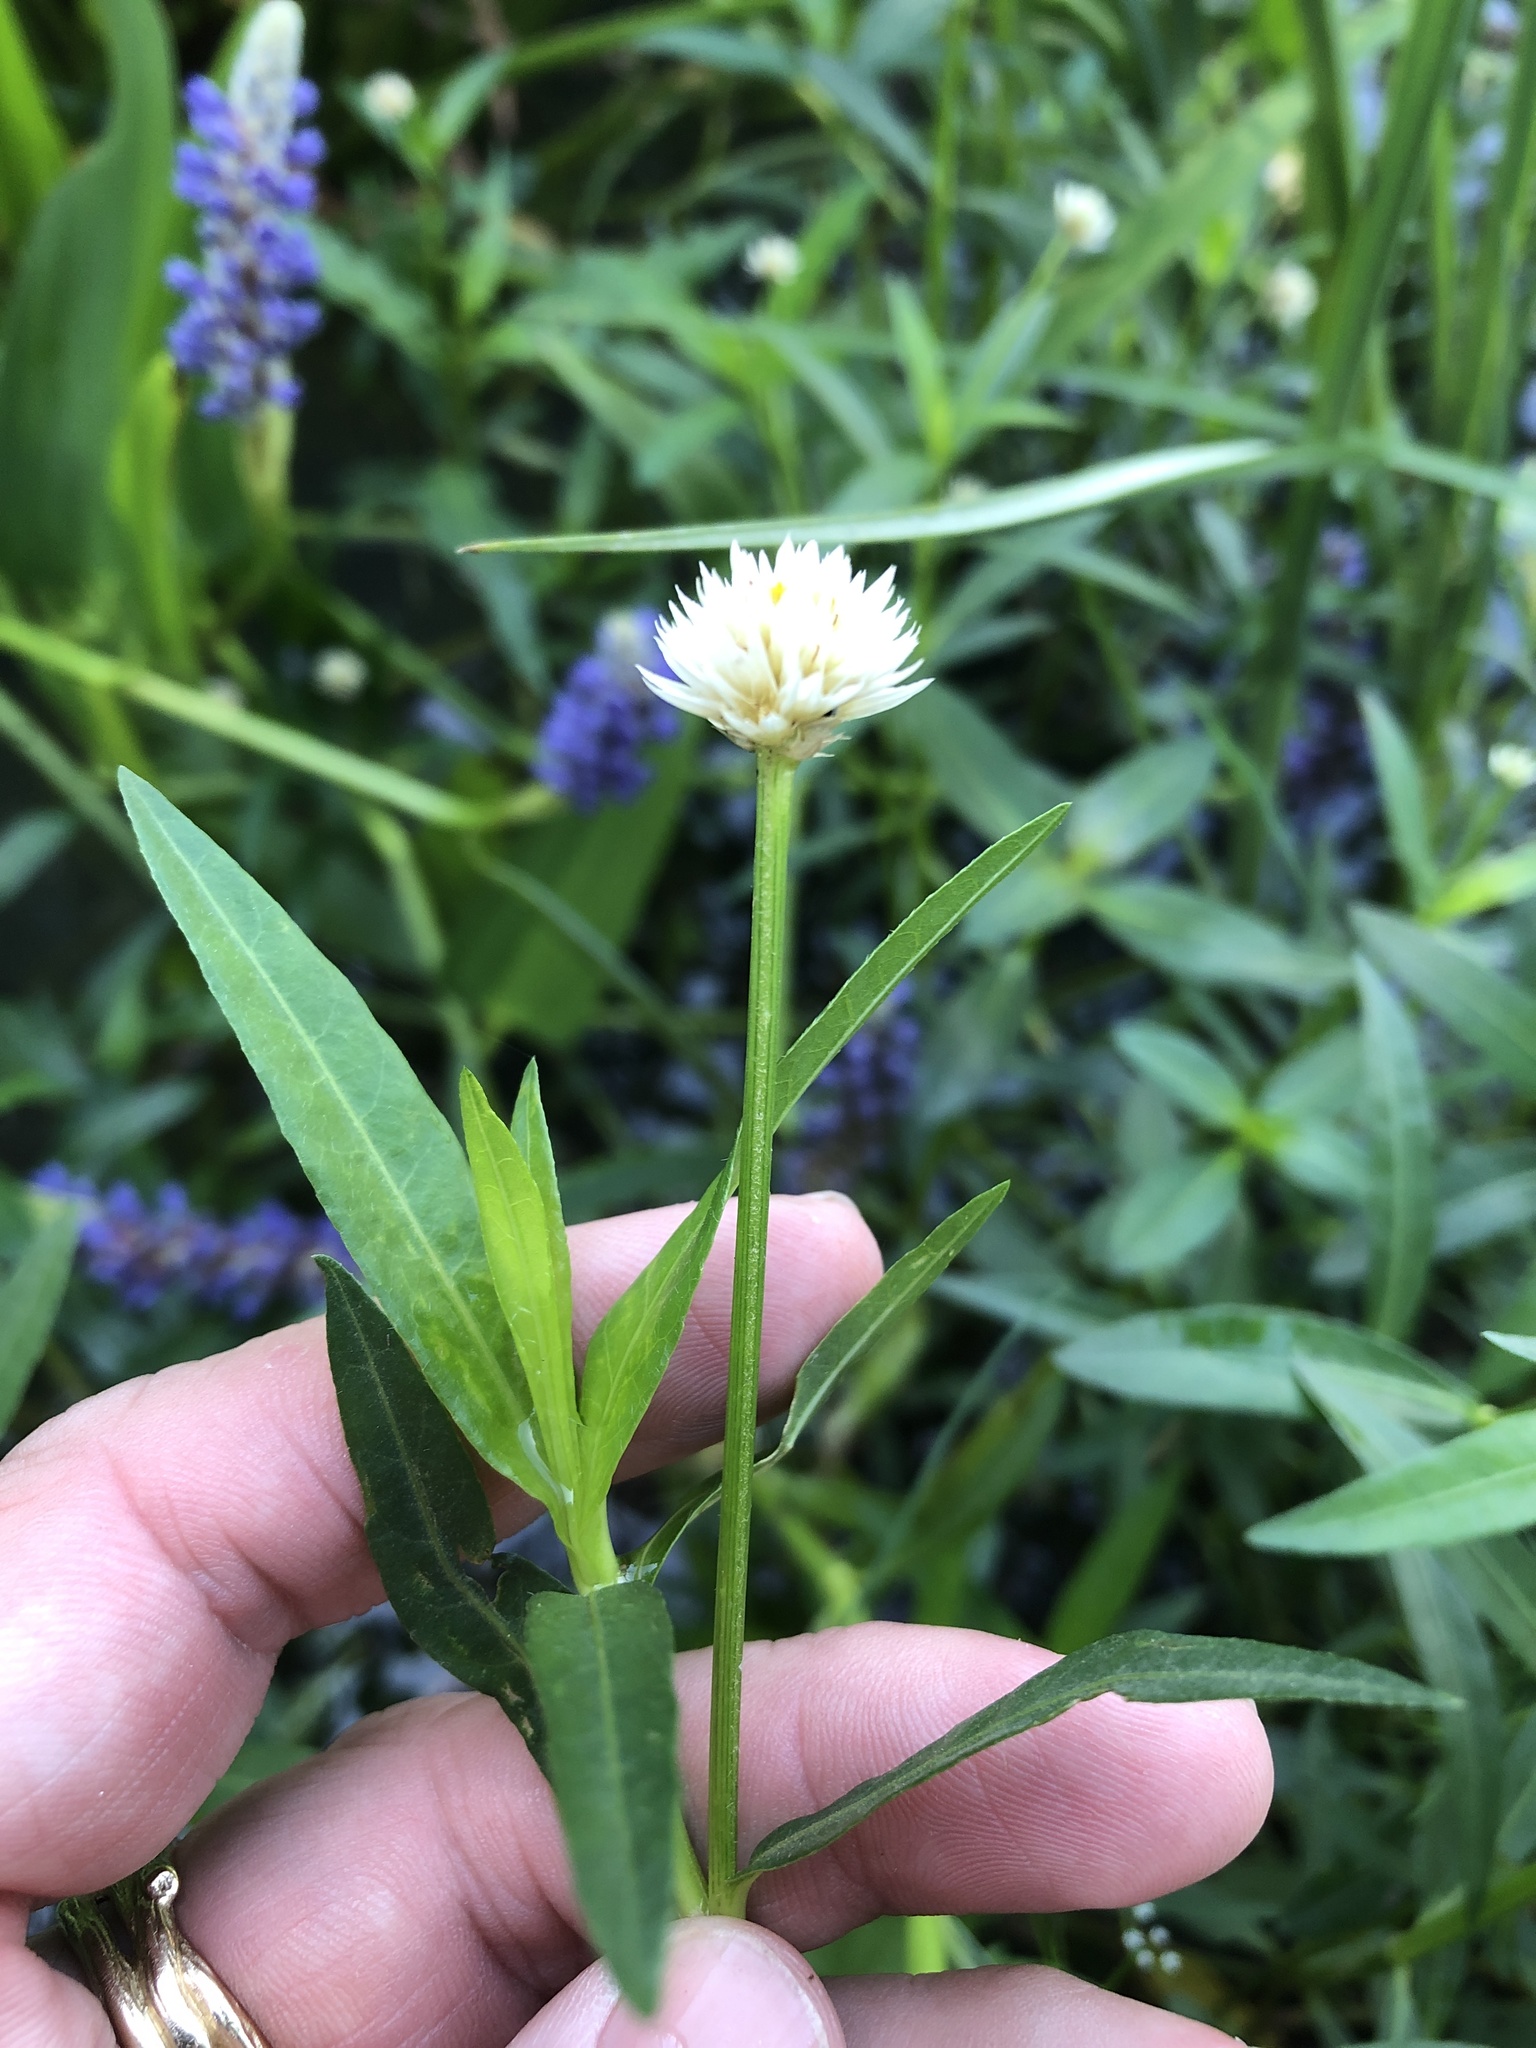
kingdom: Plantae
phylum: Tracheophyta
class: Magnoliopsida
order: Caryophyllales
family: Amaranthaceae
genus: Alternanthera
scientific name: Alternanthera philoxeroides
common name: Alligatorweed
